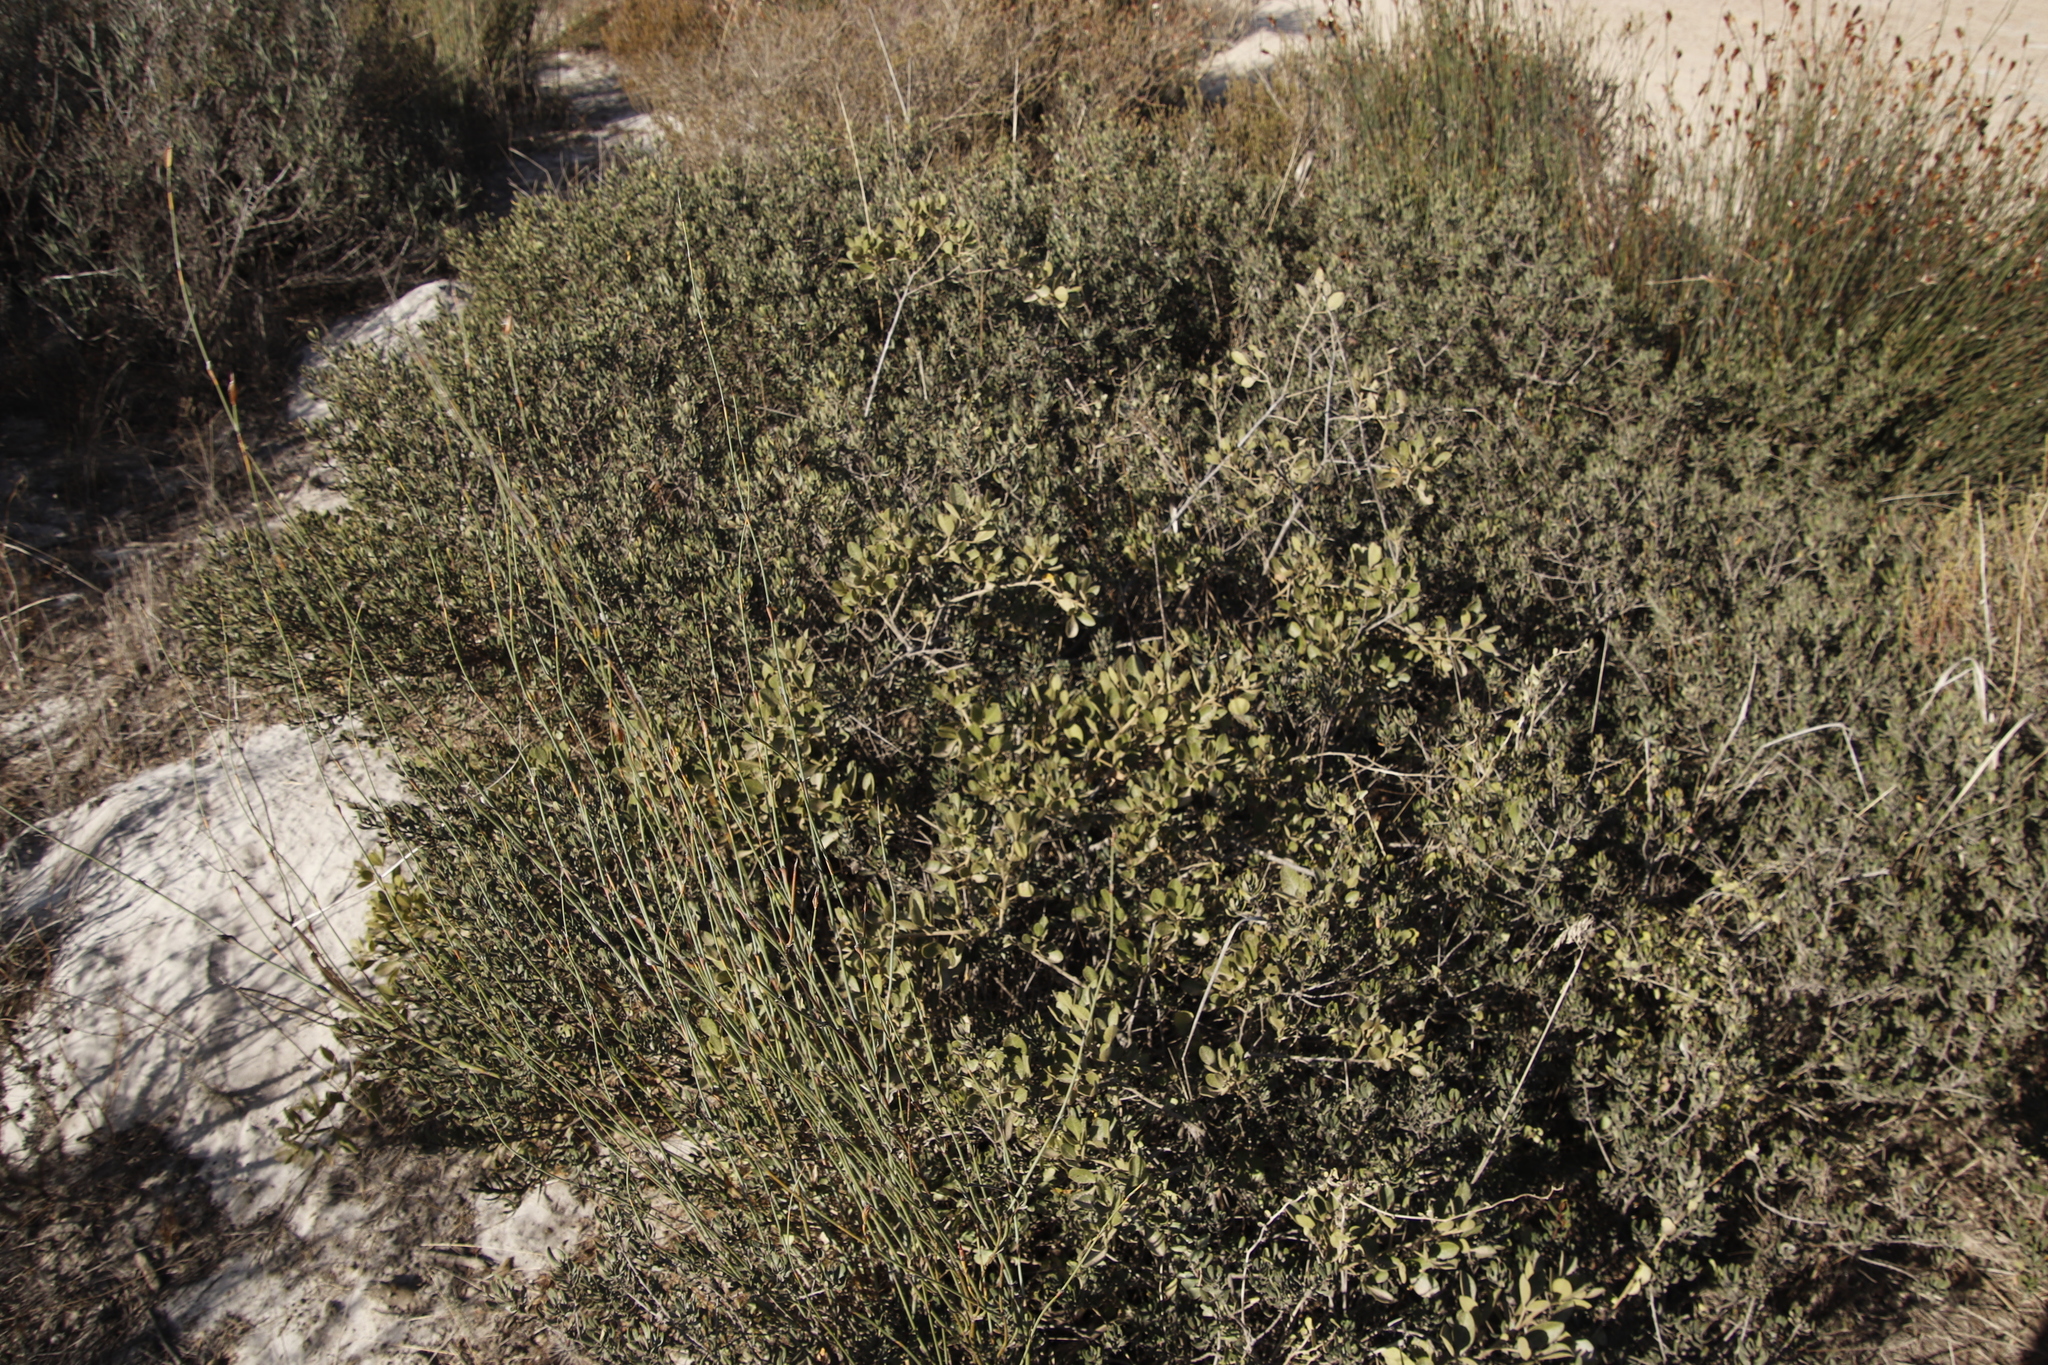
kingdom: Plantae
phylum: Tracheophyta
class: Magnoliopsida
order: Sapindales
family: Anacardiaceae
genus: Searsia
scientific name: Searsia laevigata
